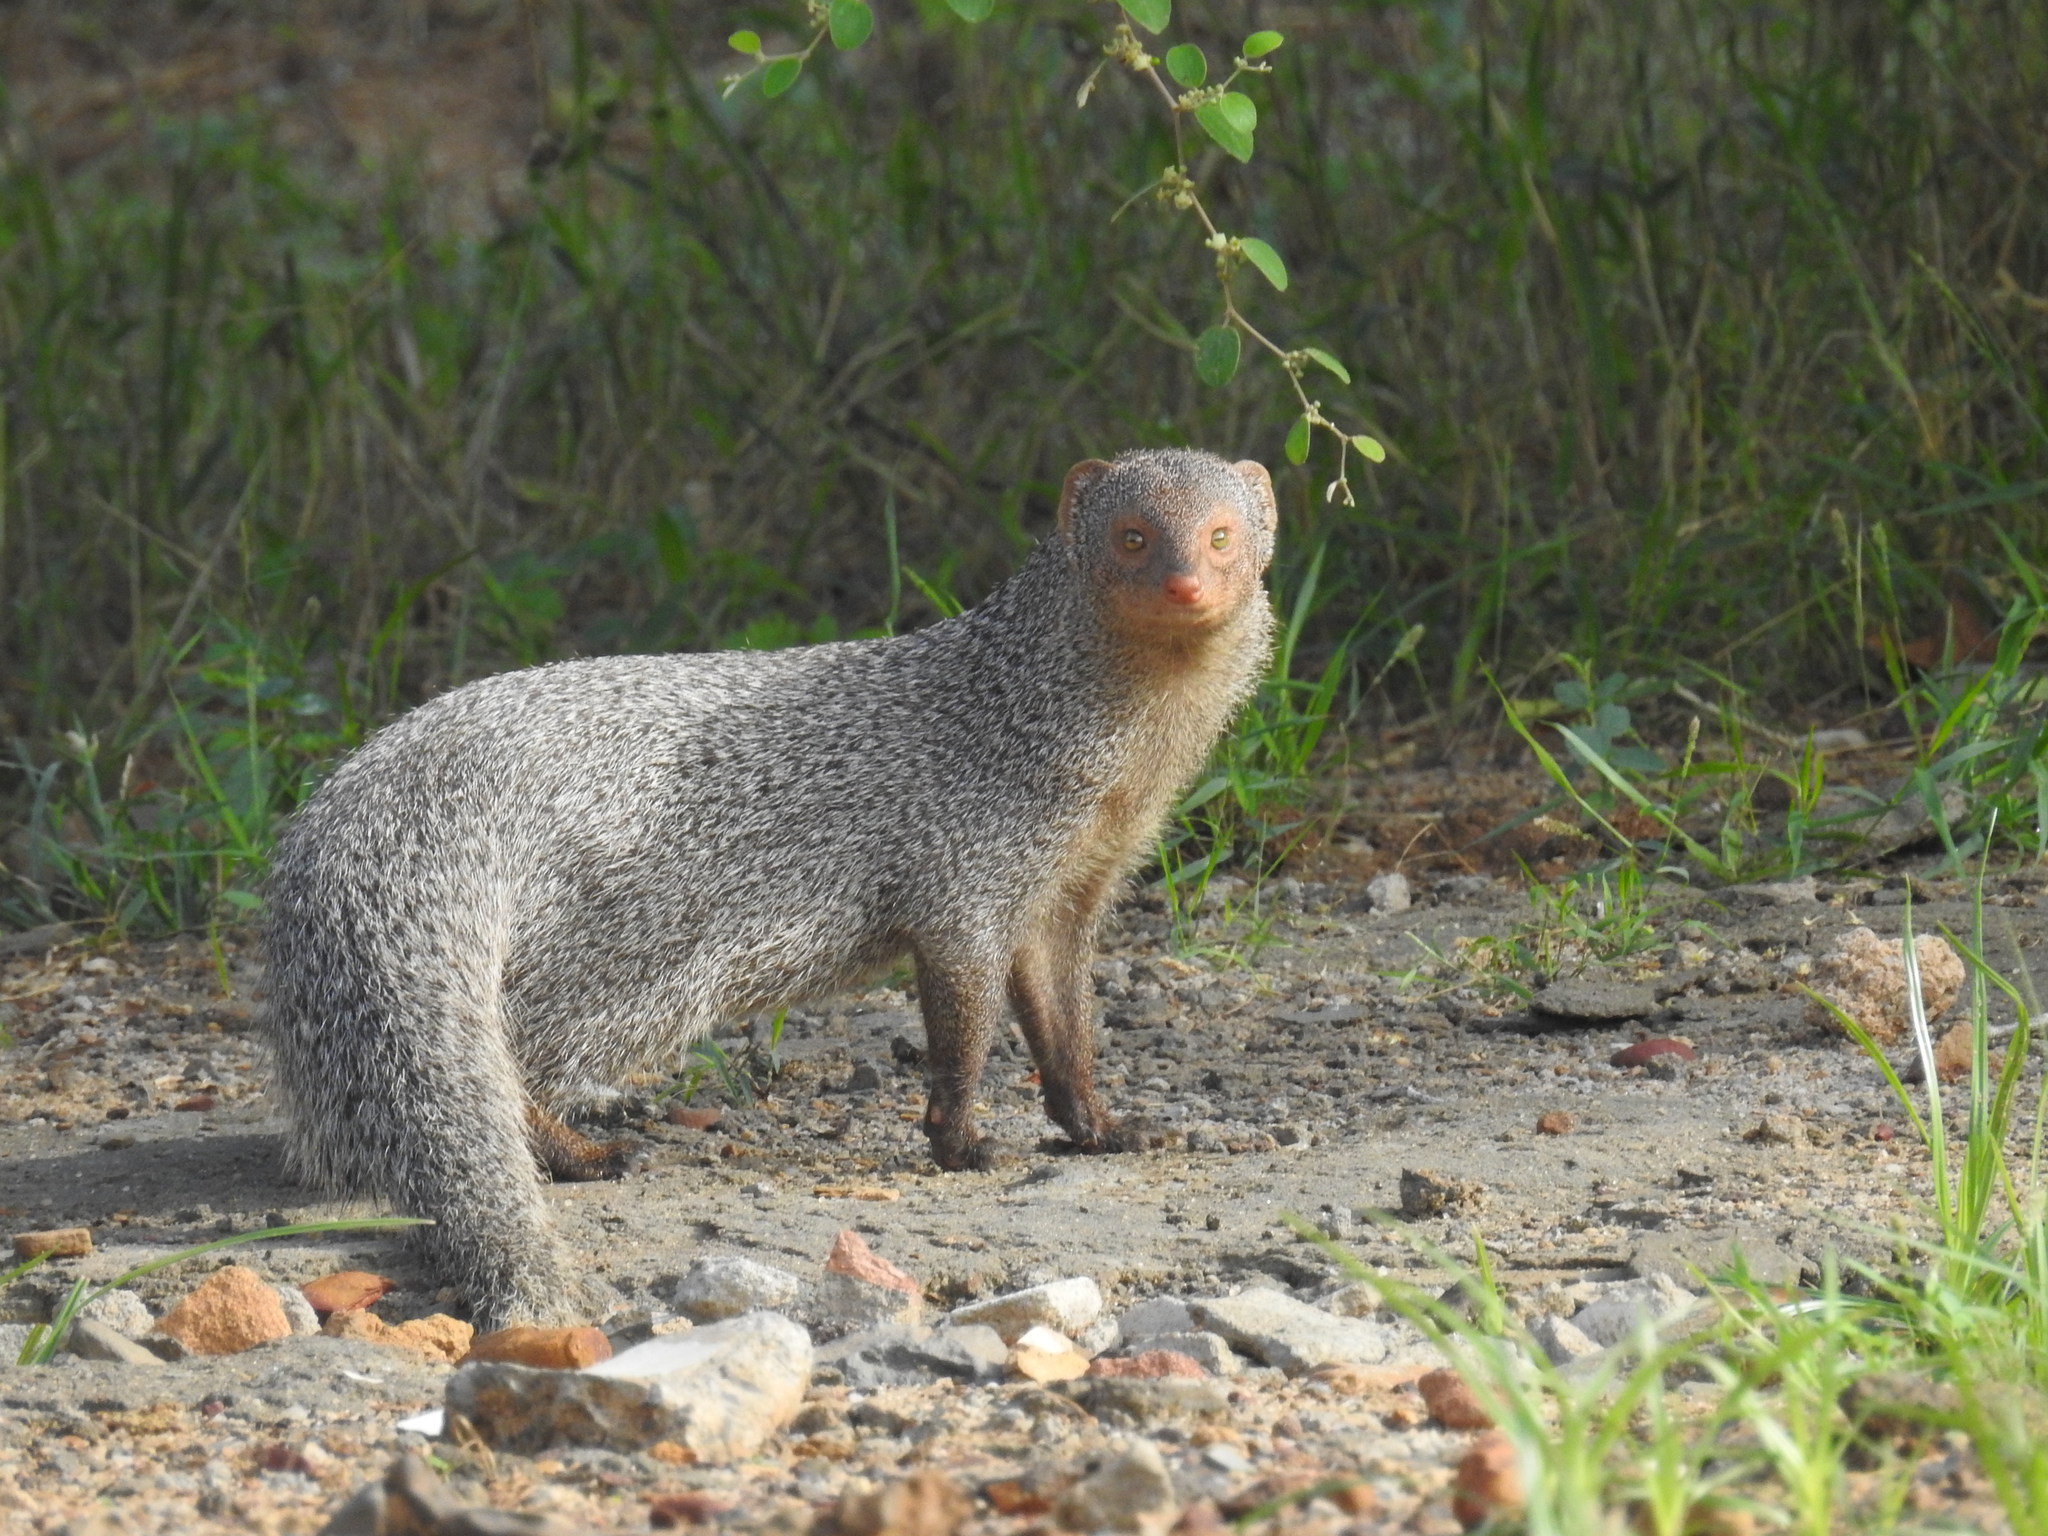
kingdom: Animalia
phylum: Chordata
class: Mammalia
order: Carnivora
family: Herpestidae
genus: Herpestes
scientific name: Herpestes edwardsi
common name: Indian gray mongoose
